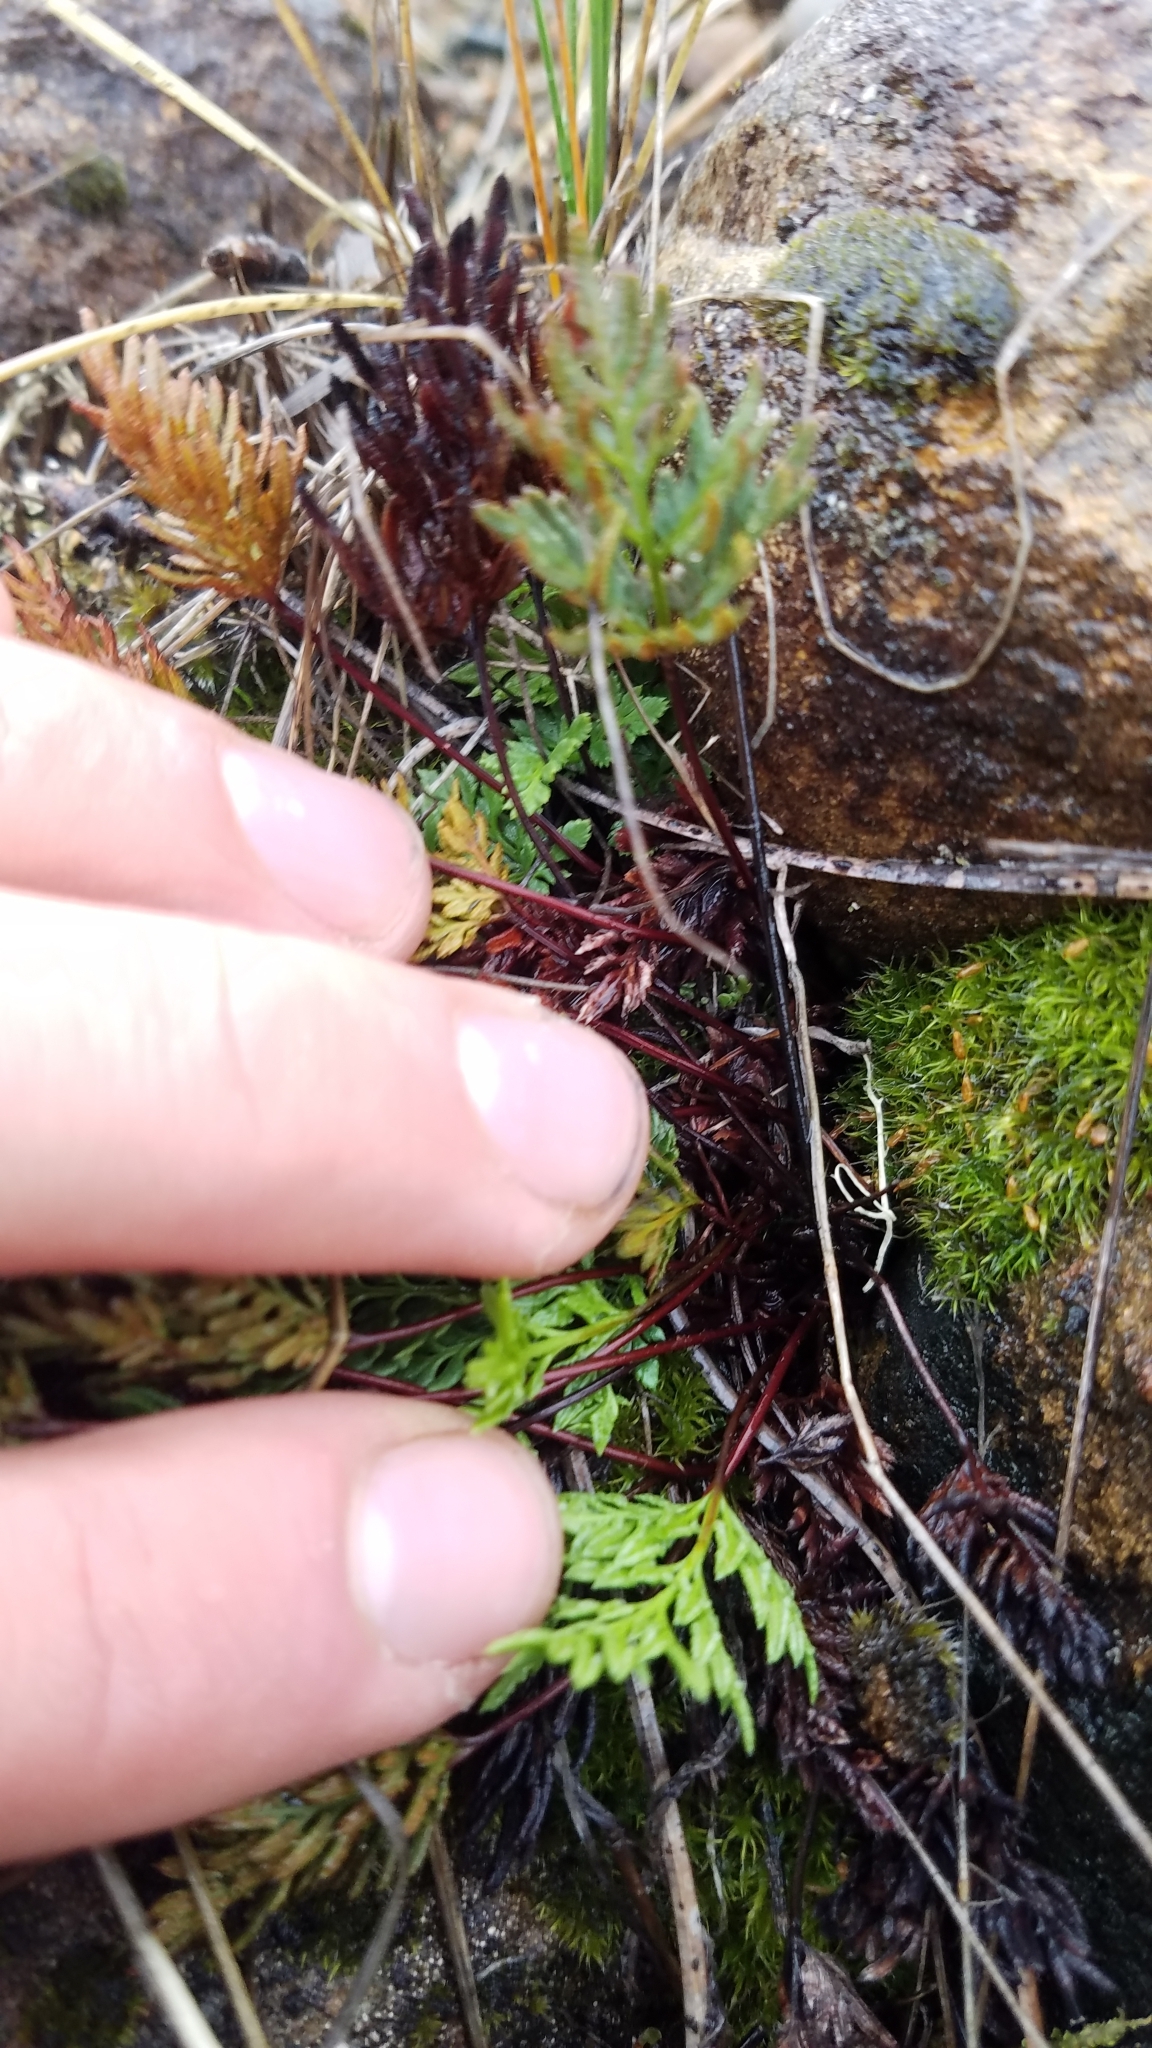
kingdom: Plantae
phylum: Tracheophyta
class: Polypodiopsida
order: Polypodiales
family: Pteridaceae
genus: Aspidotis
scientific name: Aspidotis densa
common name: Indian's dream
